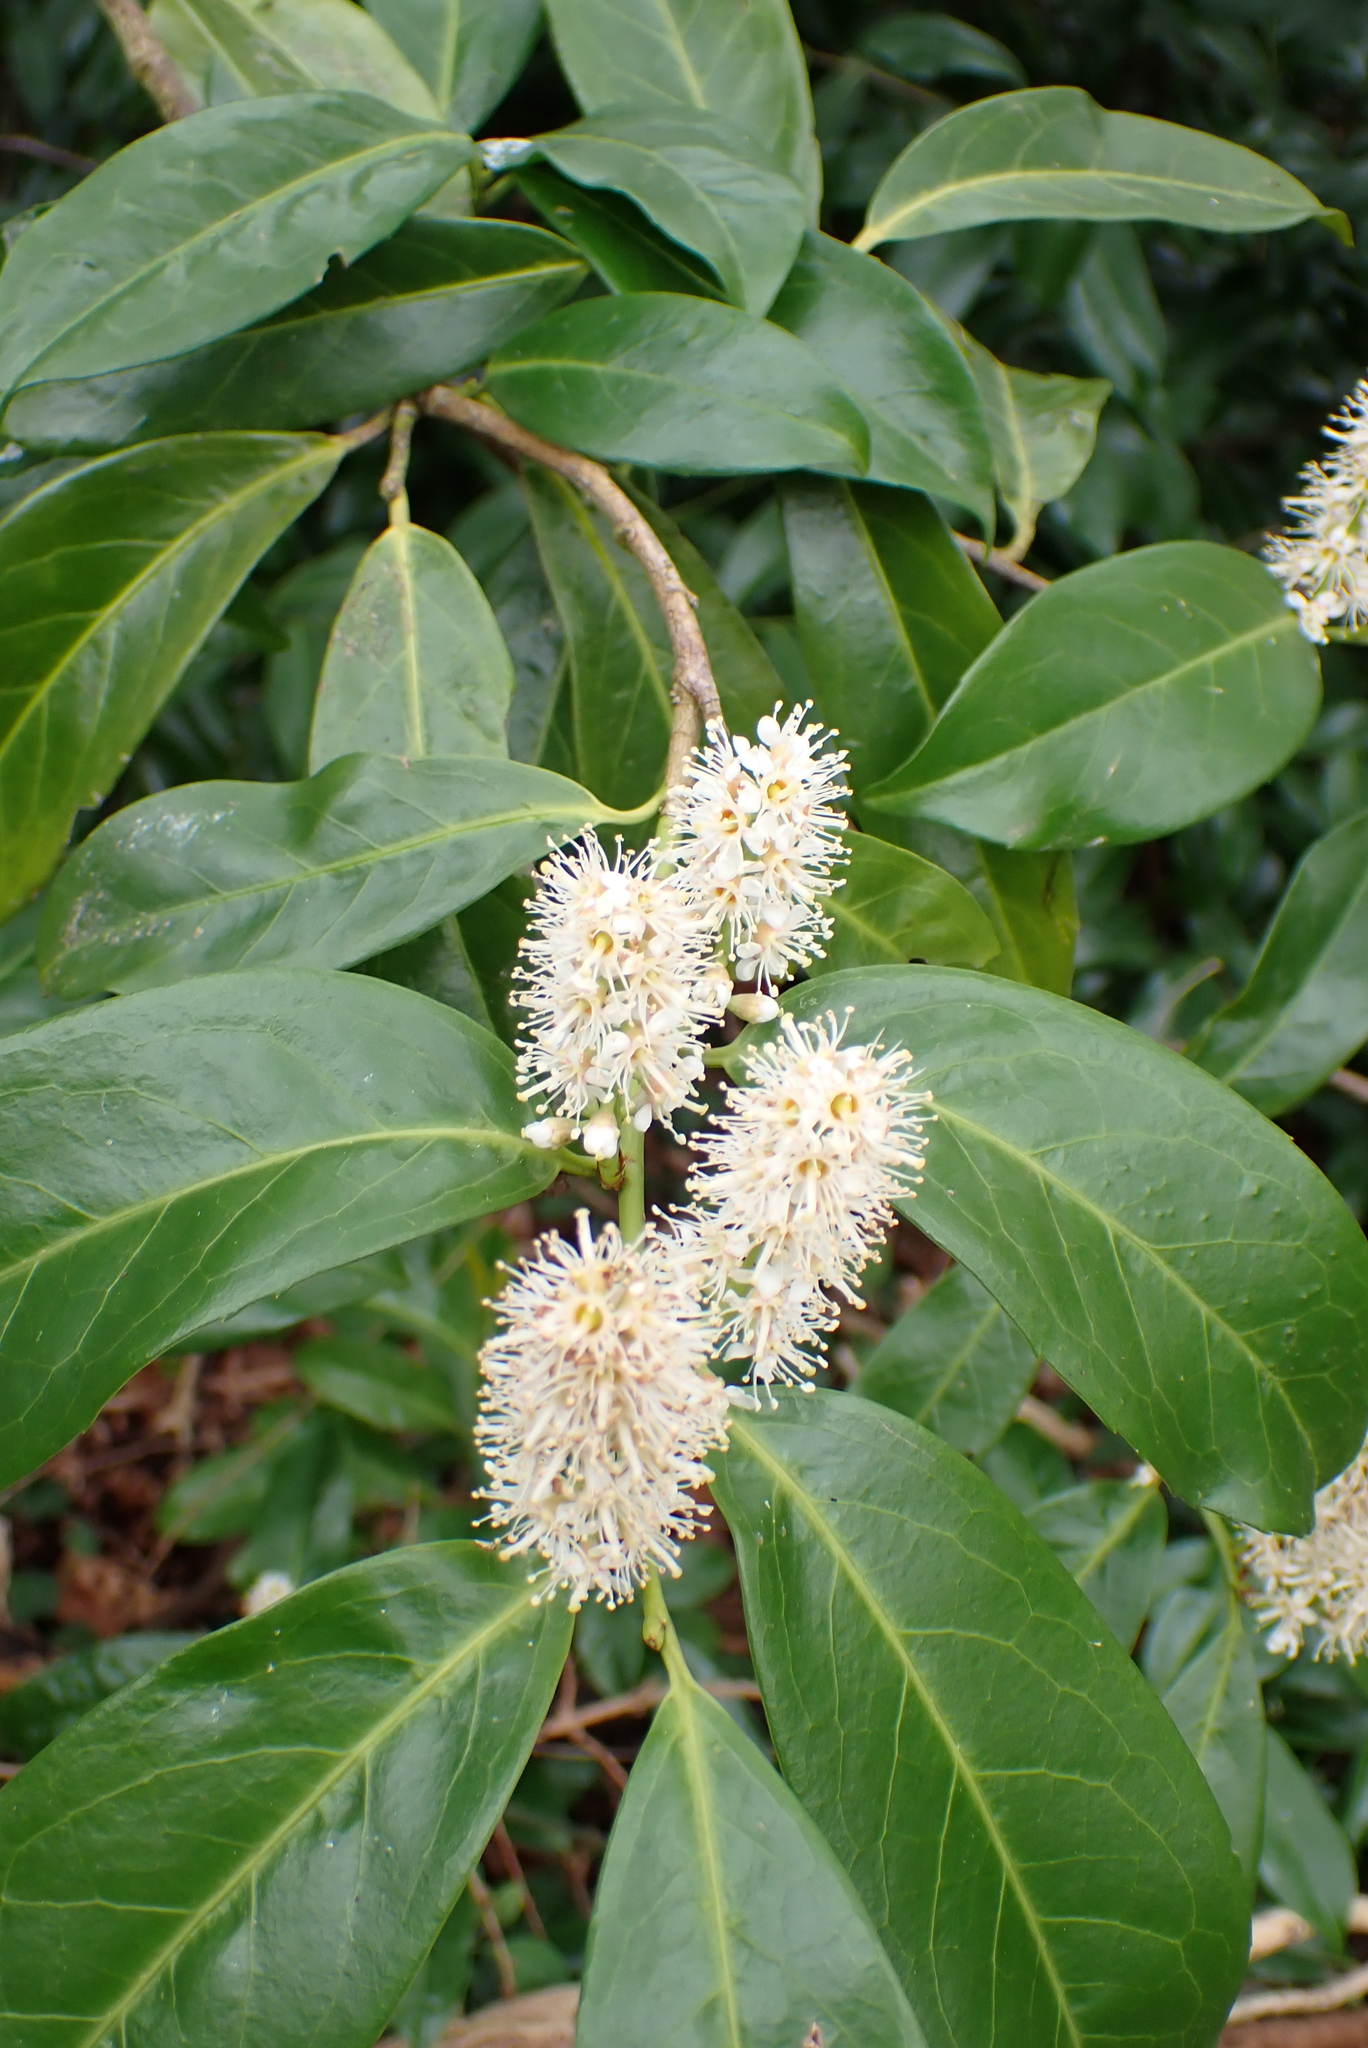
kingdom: Plantae
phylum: Tracheophyta
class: Magnoliopsida
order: Rosales
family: Rosaceae
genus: Prunus
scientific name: Prunus laurocerasus
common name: Cherry laurel
